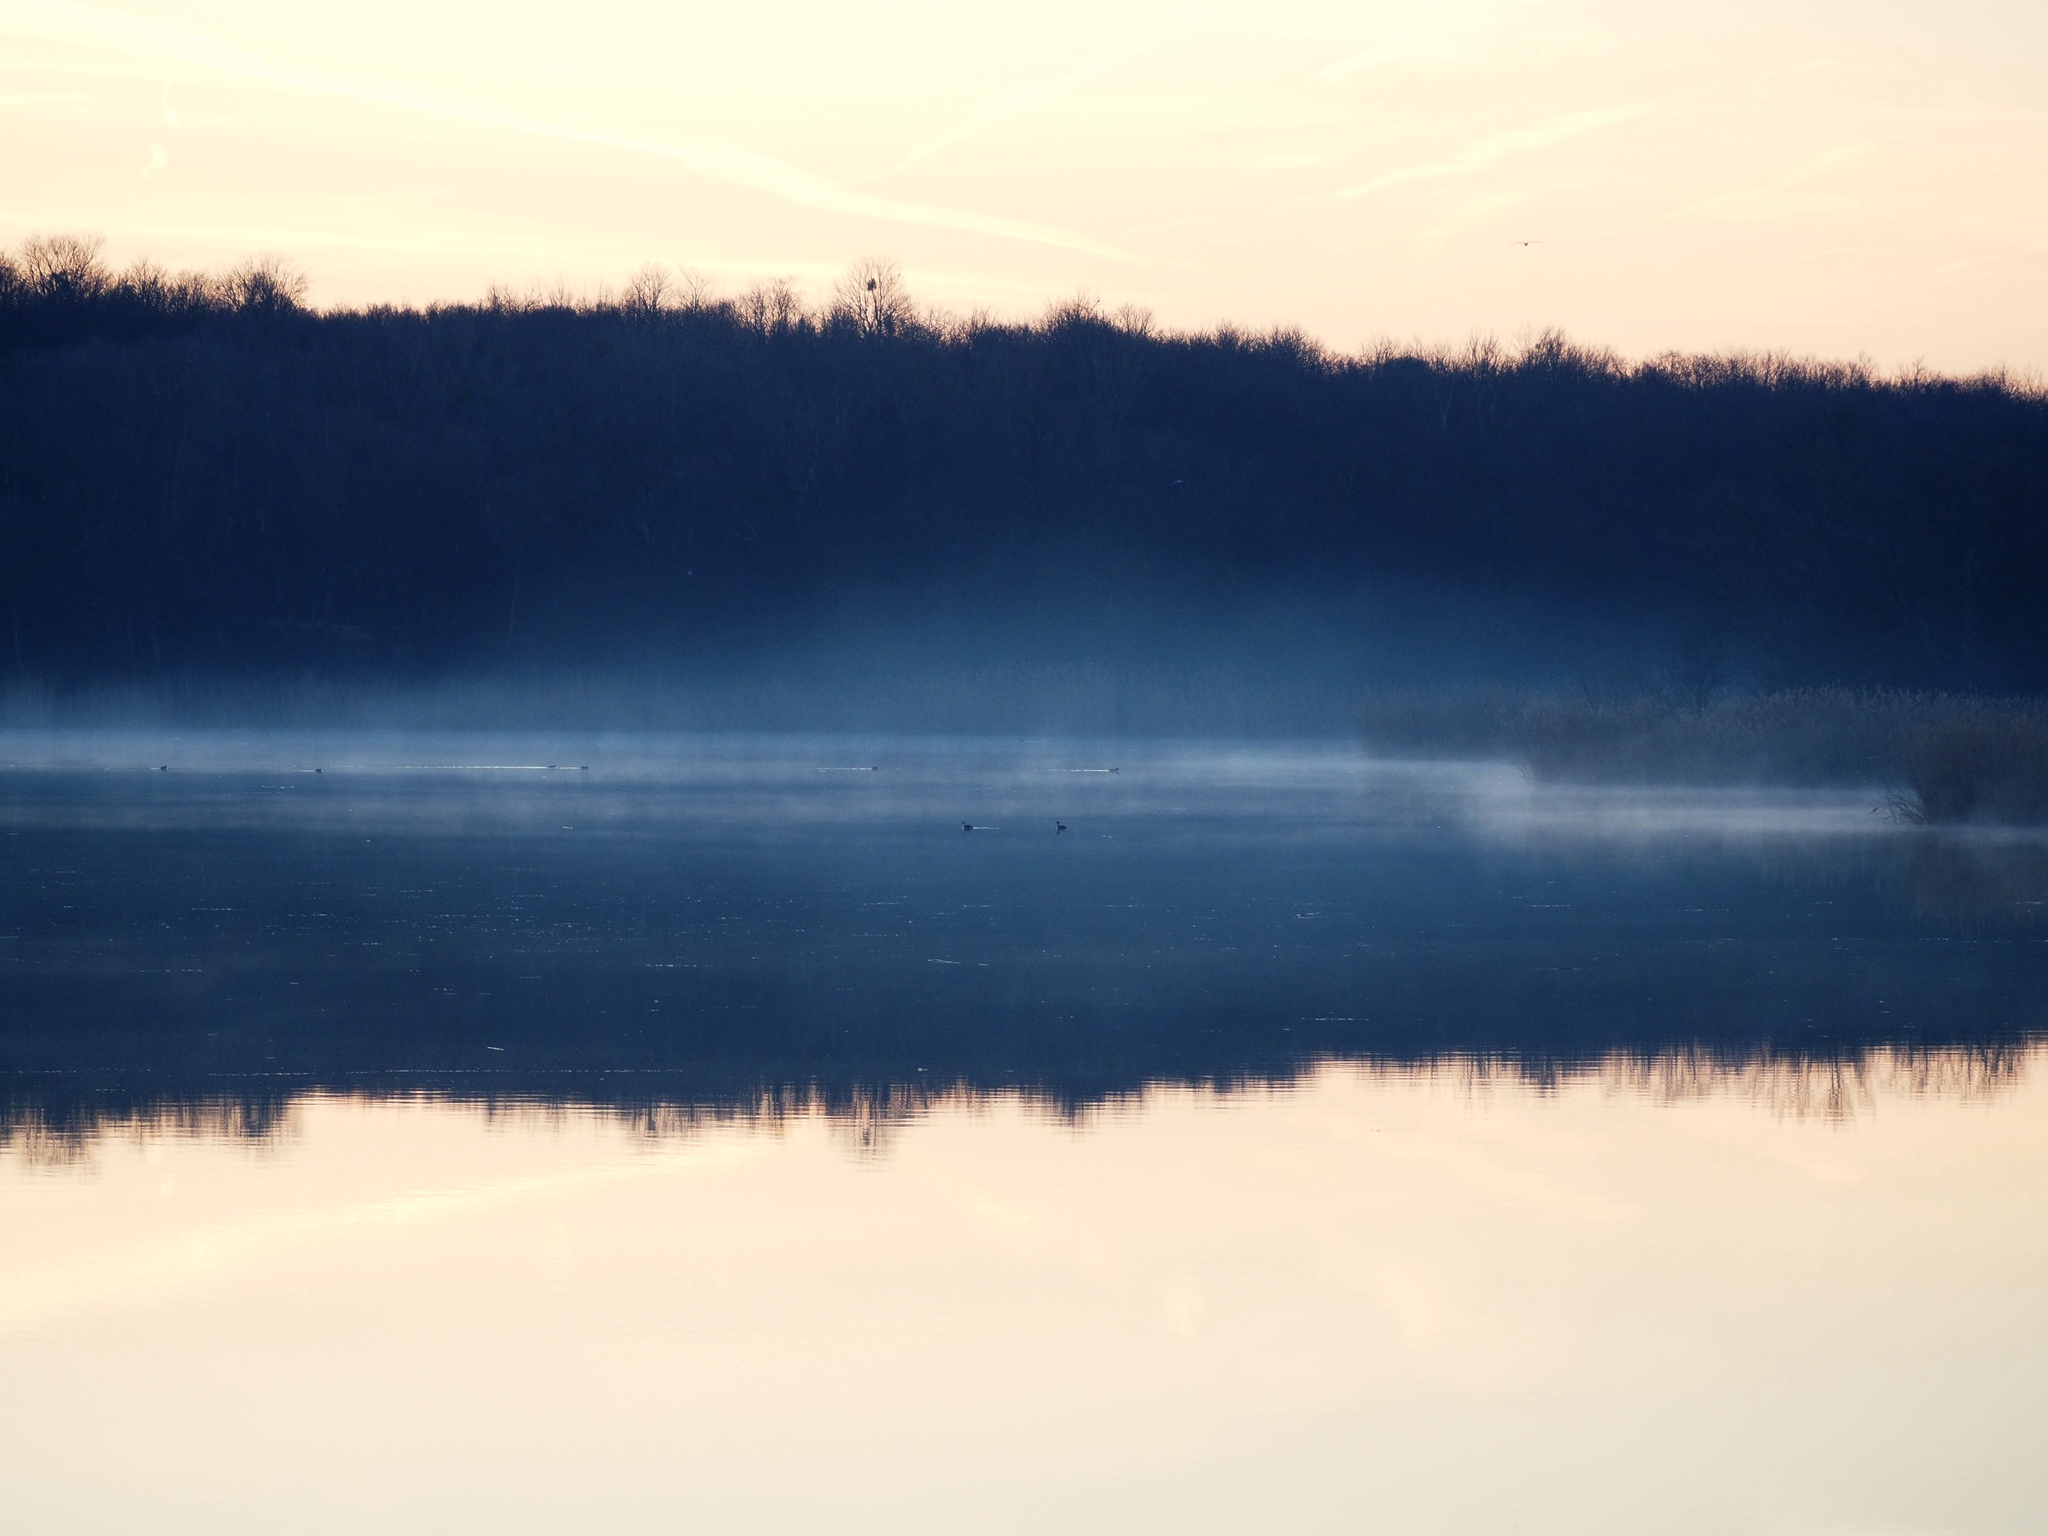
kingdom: Animalia
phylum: Chordata
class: Aves
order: Podicipediformes
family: Podicipedidae
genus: Podiceps
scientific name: Podiceps cristatus
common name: Great crested grebe
